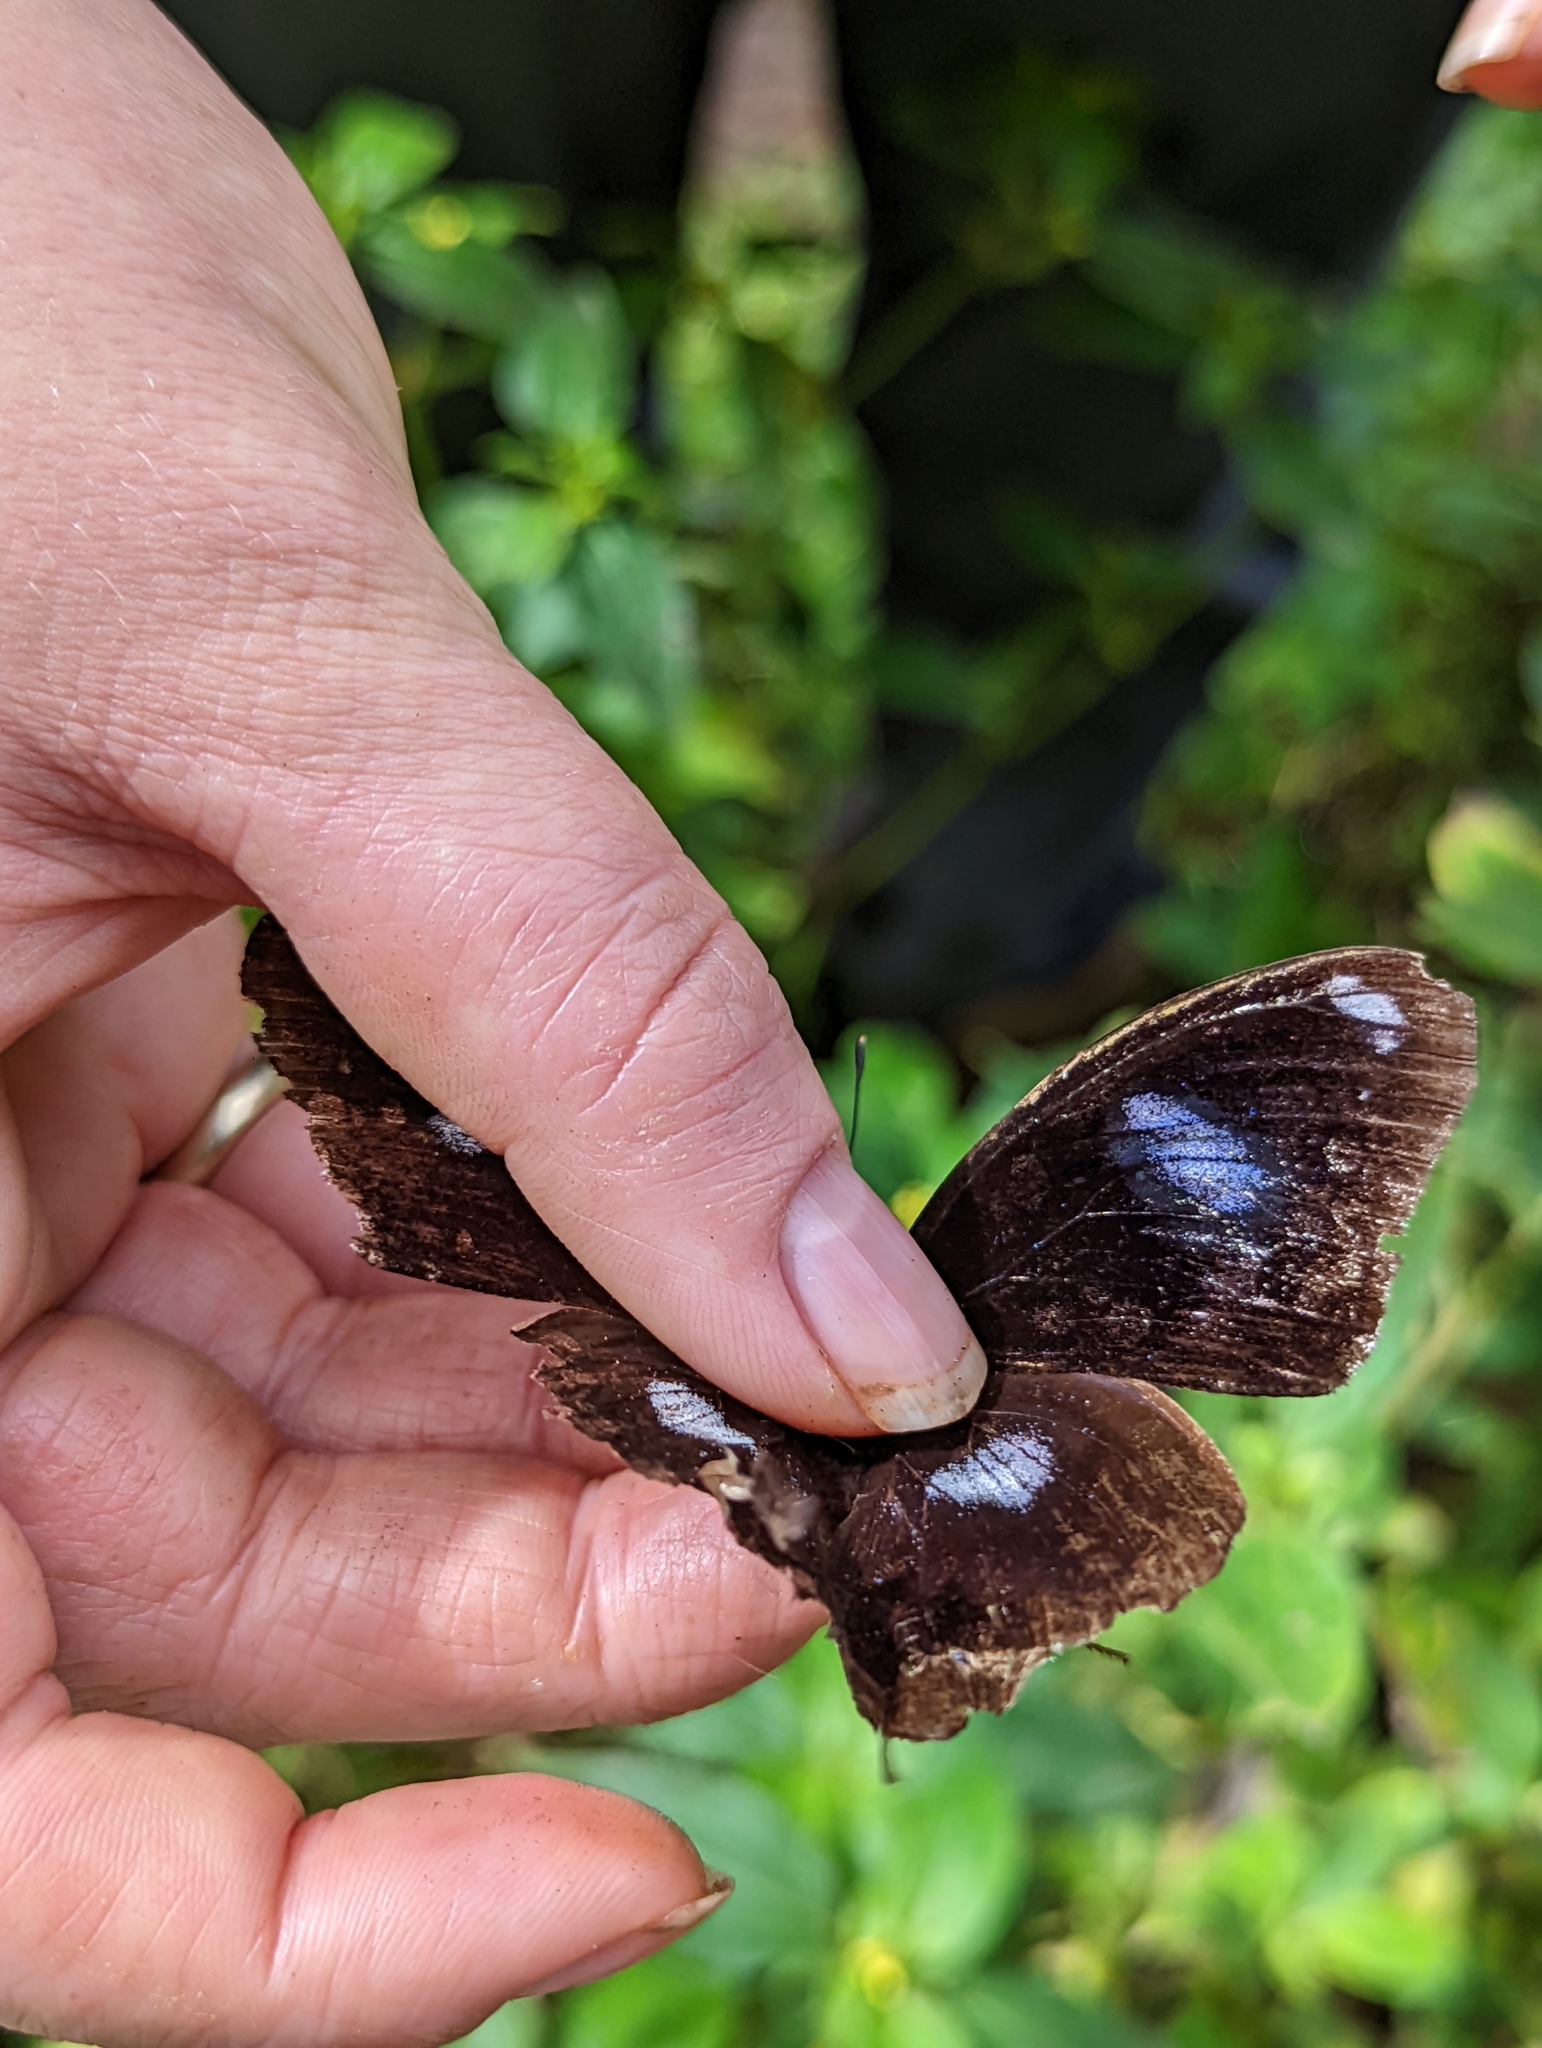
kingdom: Animalia
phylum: Arthropoda
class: Insecta
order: Lepidoptera
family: Nymphalidae
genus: Hypolimnas
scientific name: Hypolimnas bolina
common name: Great eggfly
